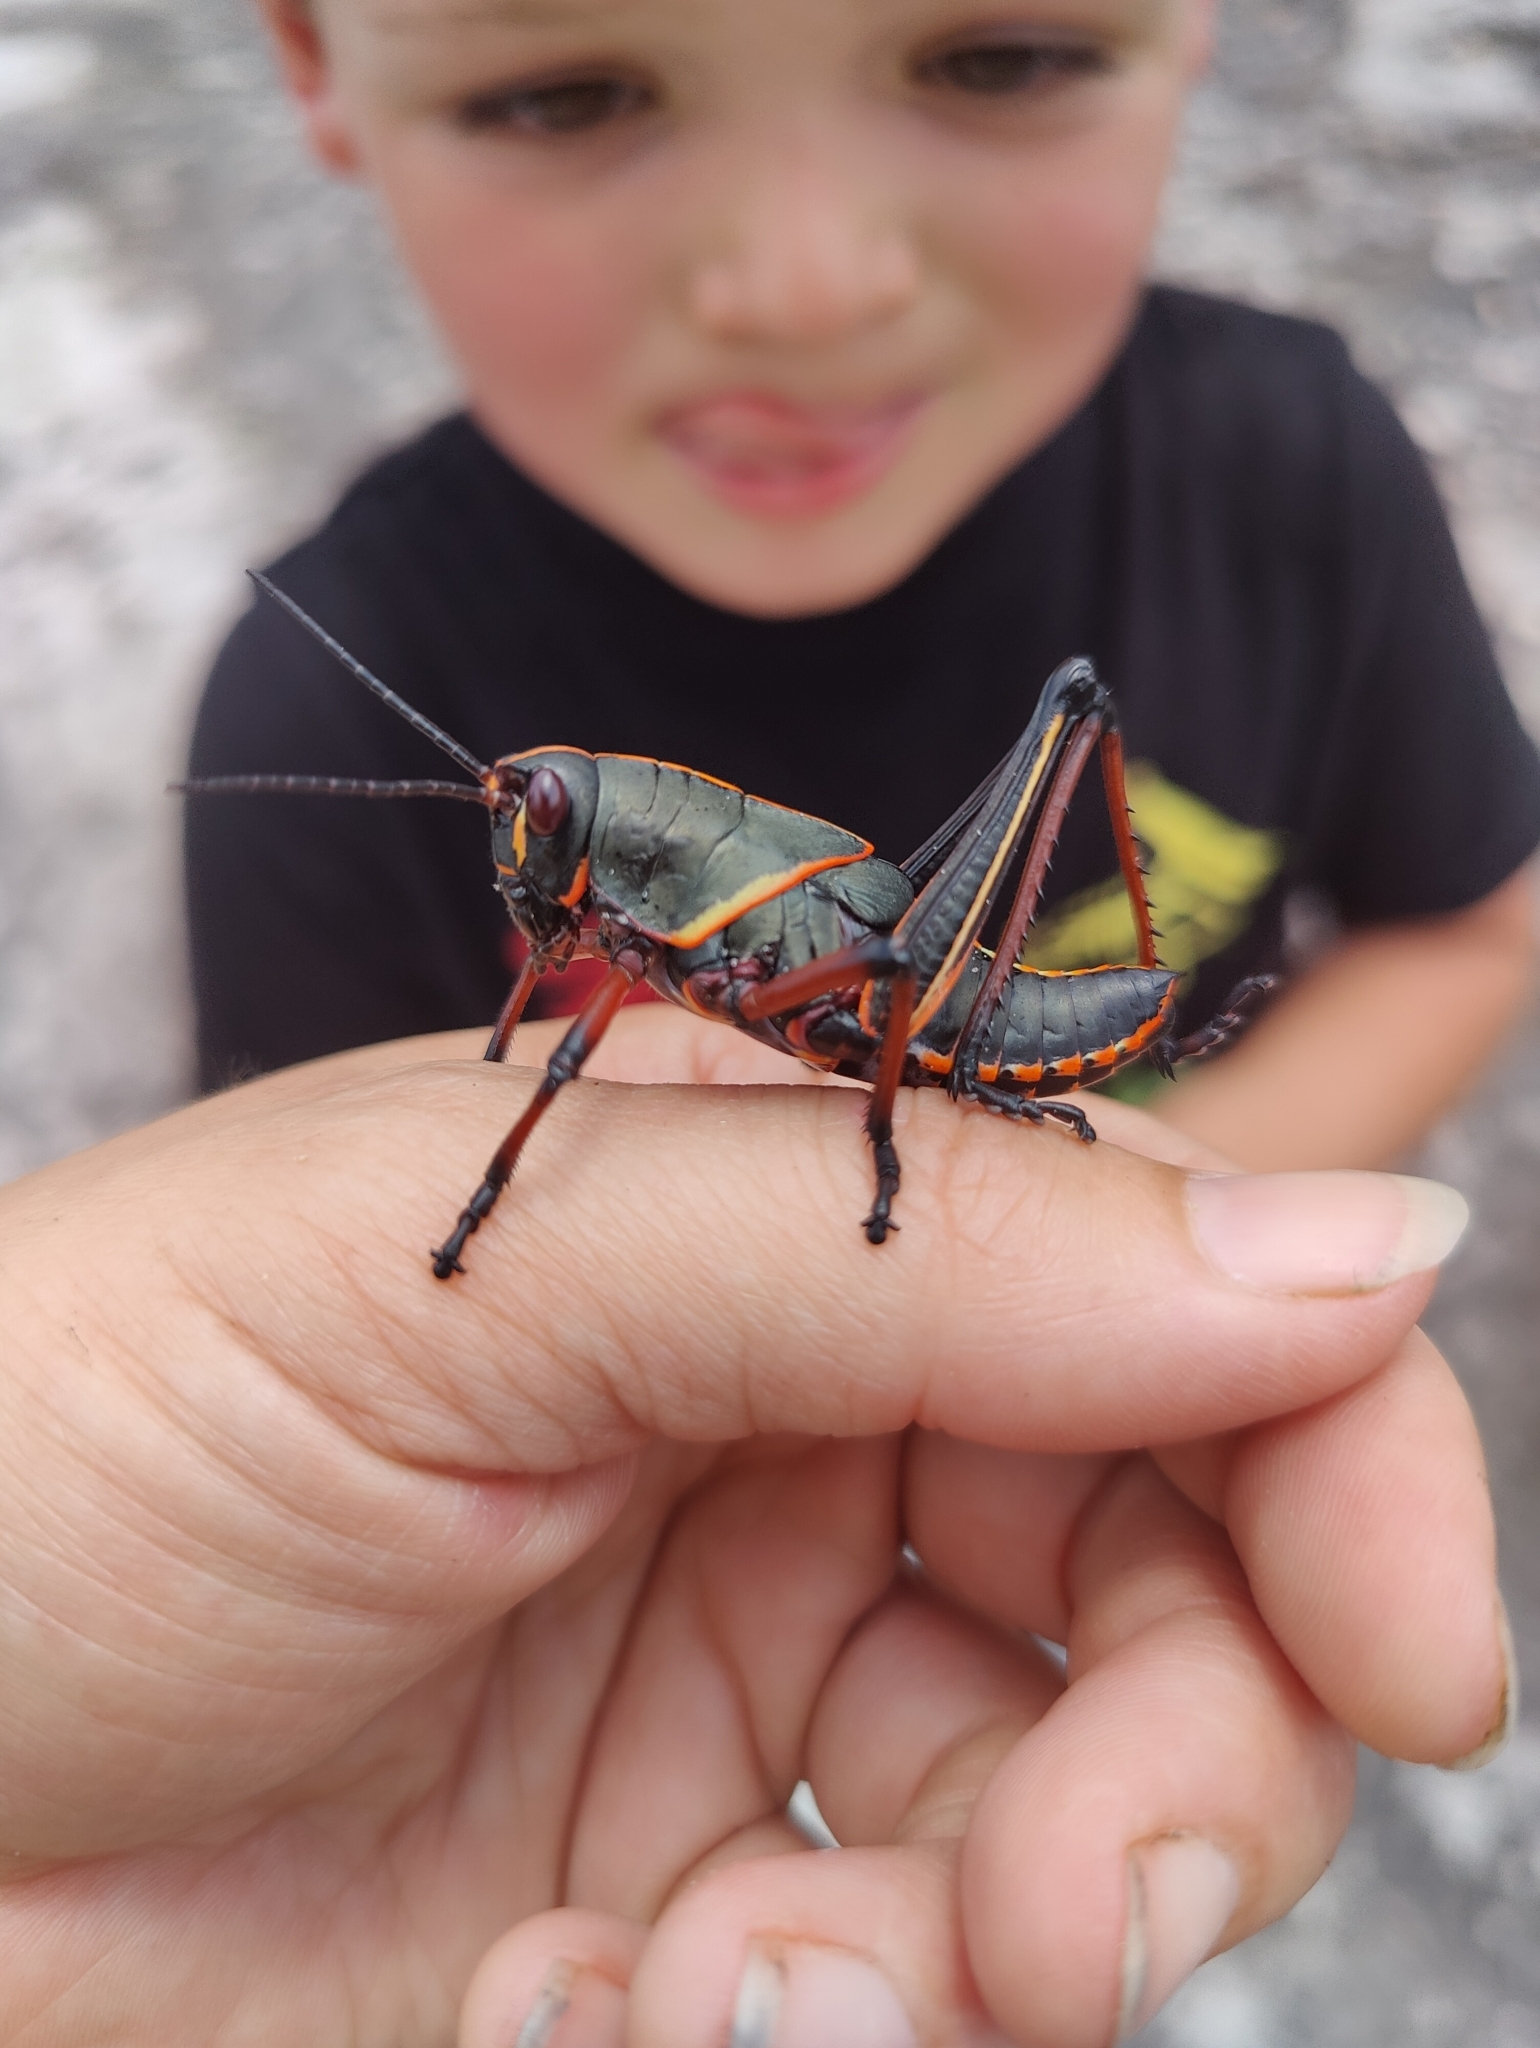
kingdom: Animalia
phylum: Arthropoda
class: Insecta
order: Orthoptera
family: Romaleidae
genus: Romalea
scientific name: Romalea microptera
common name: Eastern lubber grasshopper
